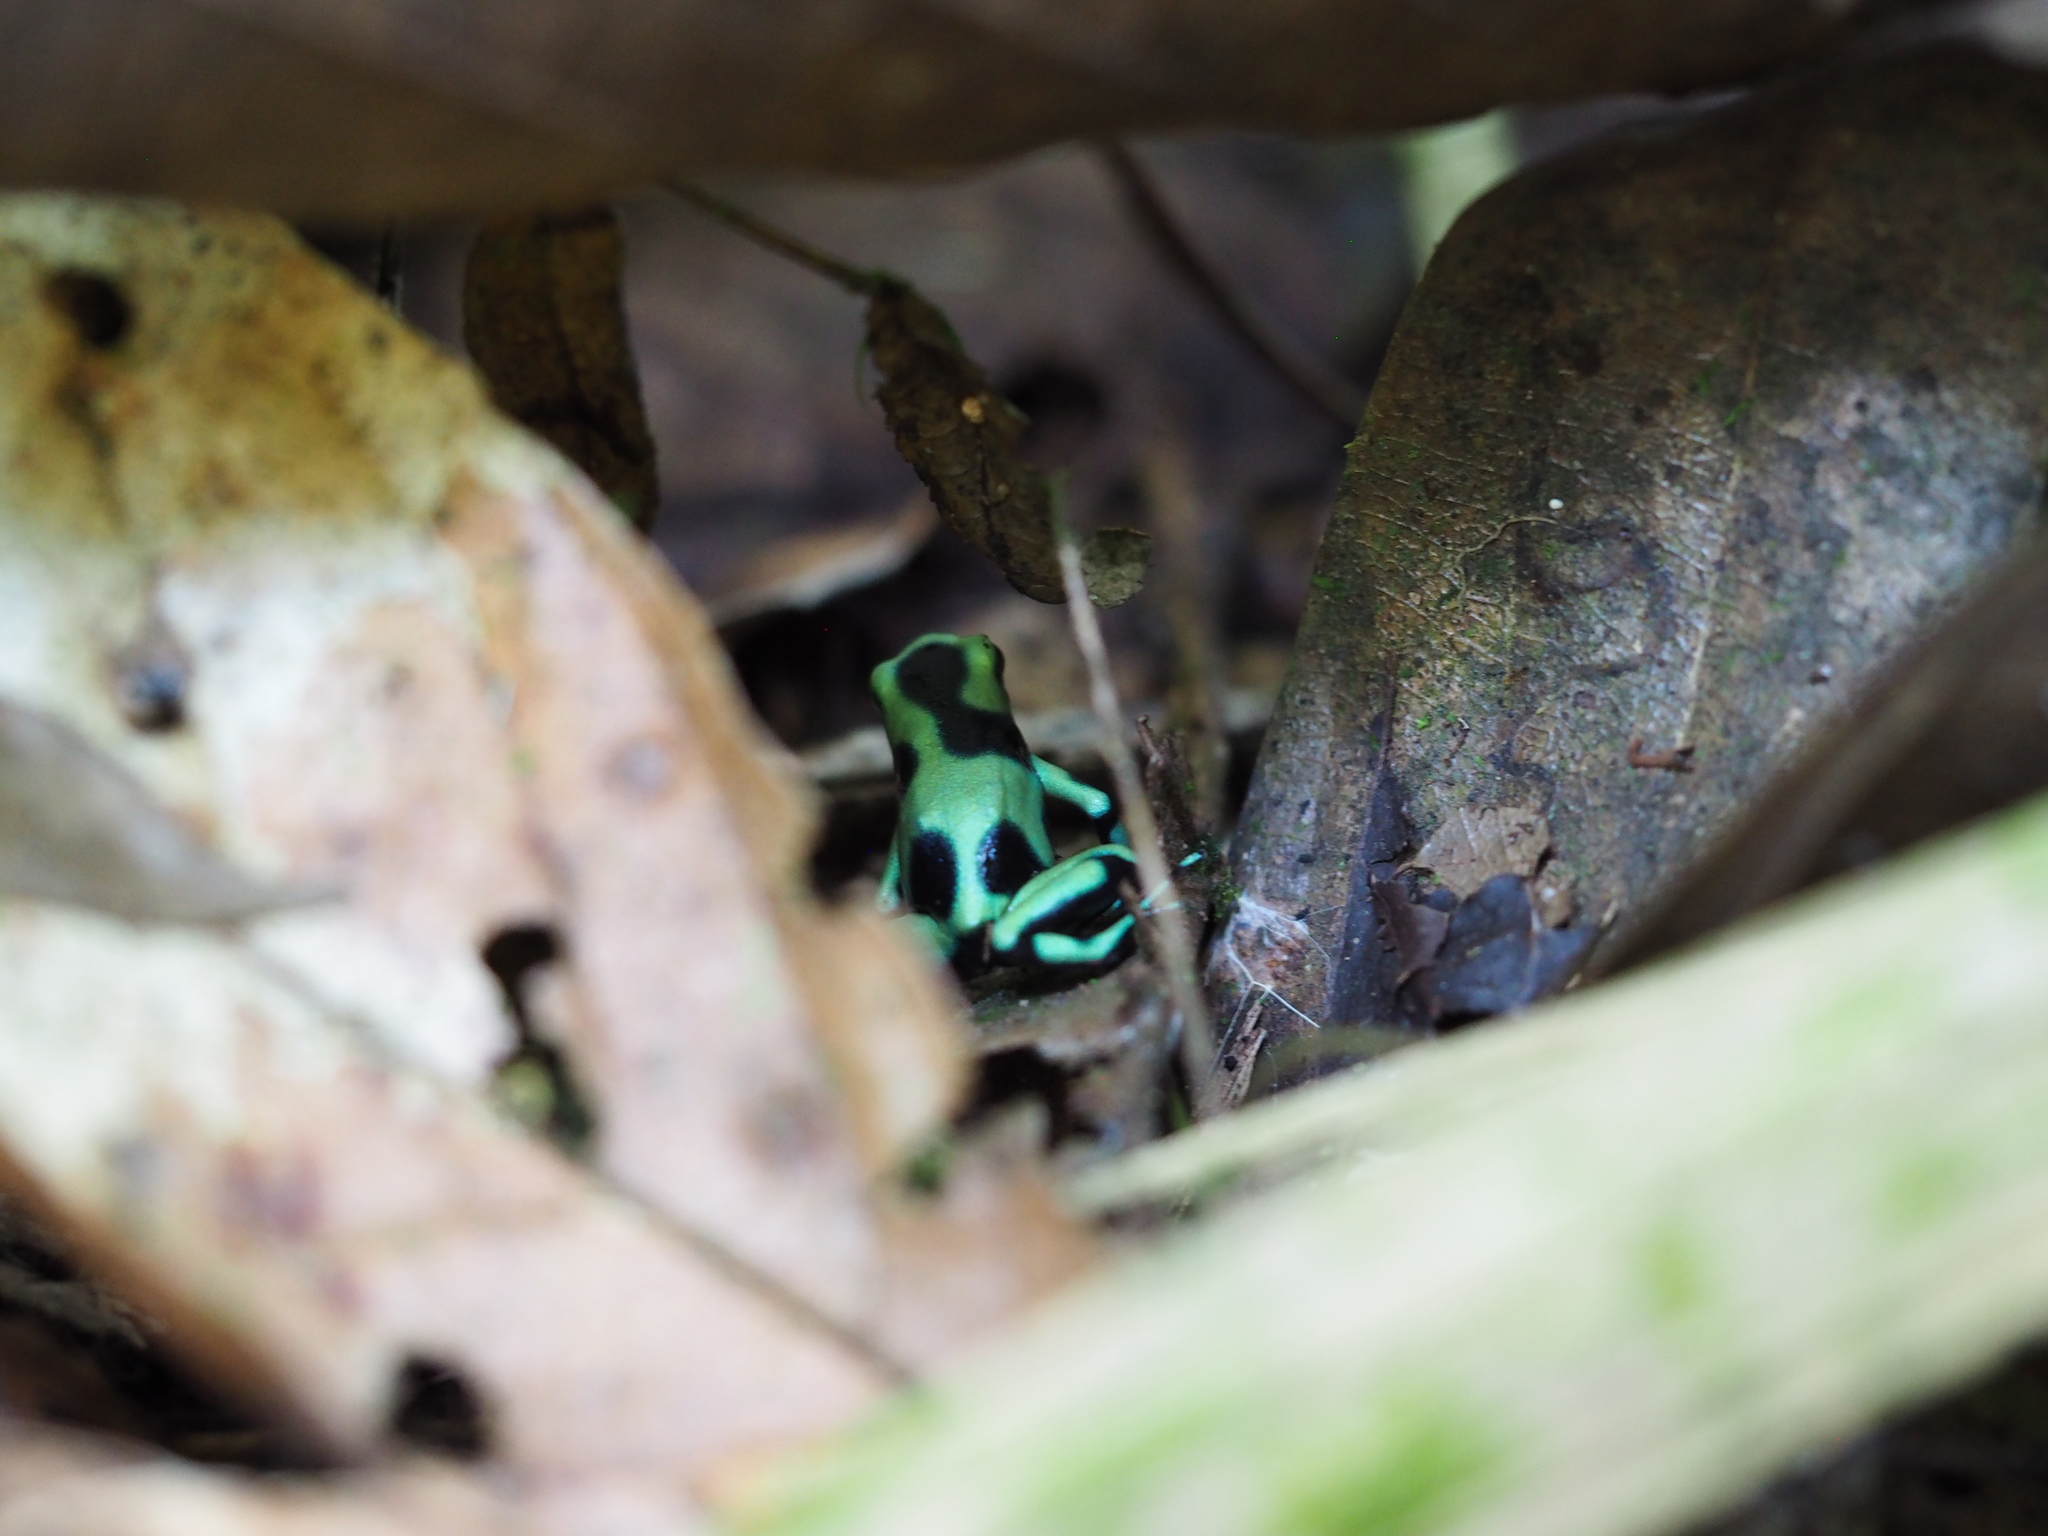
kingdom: Animalia
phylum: Chordata
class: Amphibia
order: Anura
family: Dendrobatidae
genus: Dendrobates
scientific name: Dendrobates auratus
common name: Green and black poison dart frog
